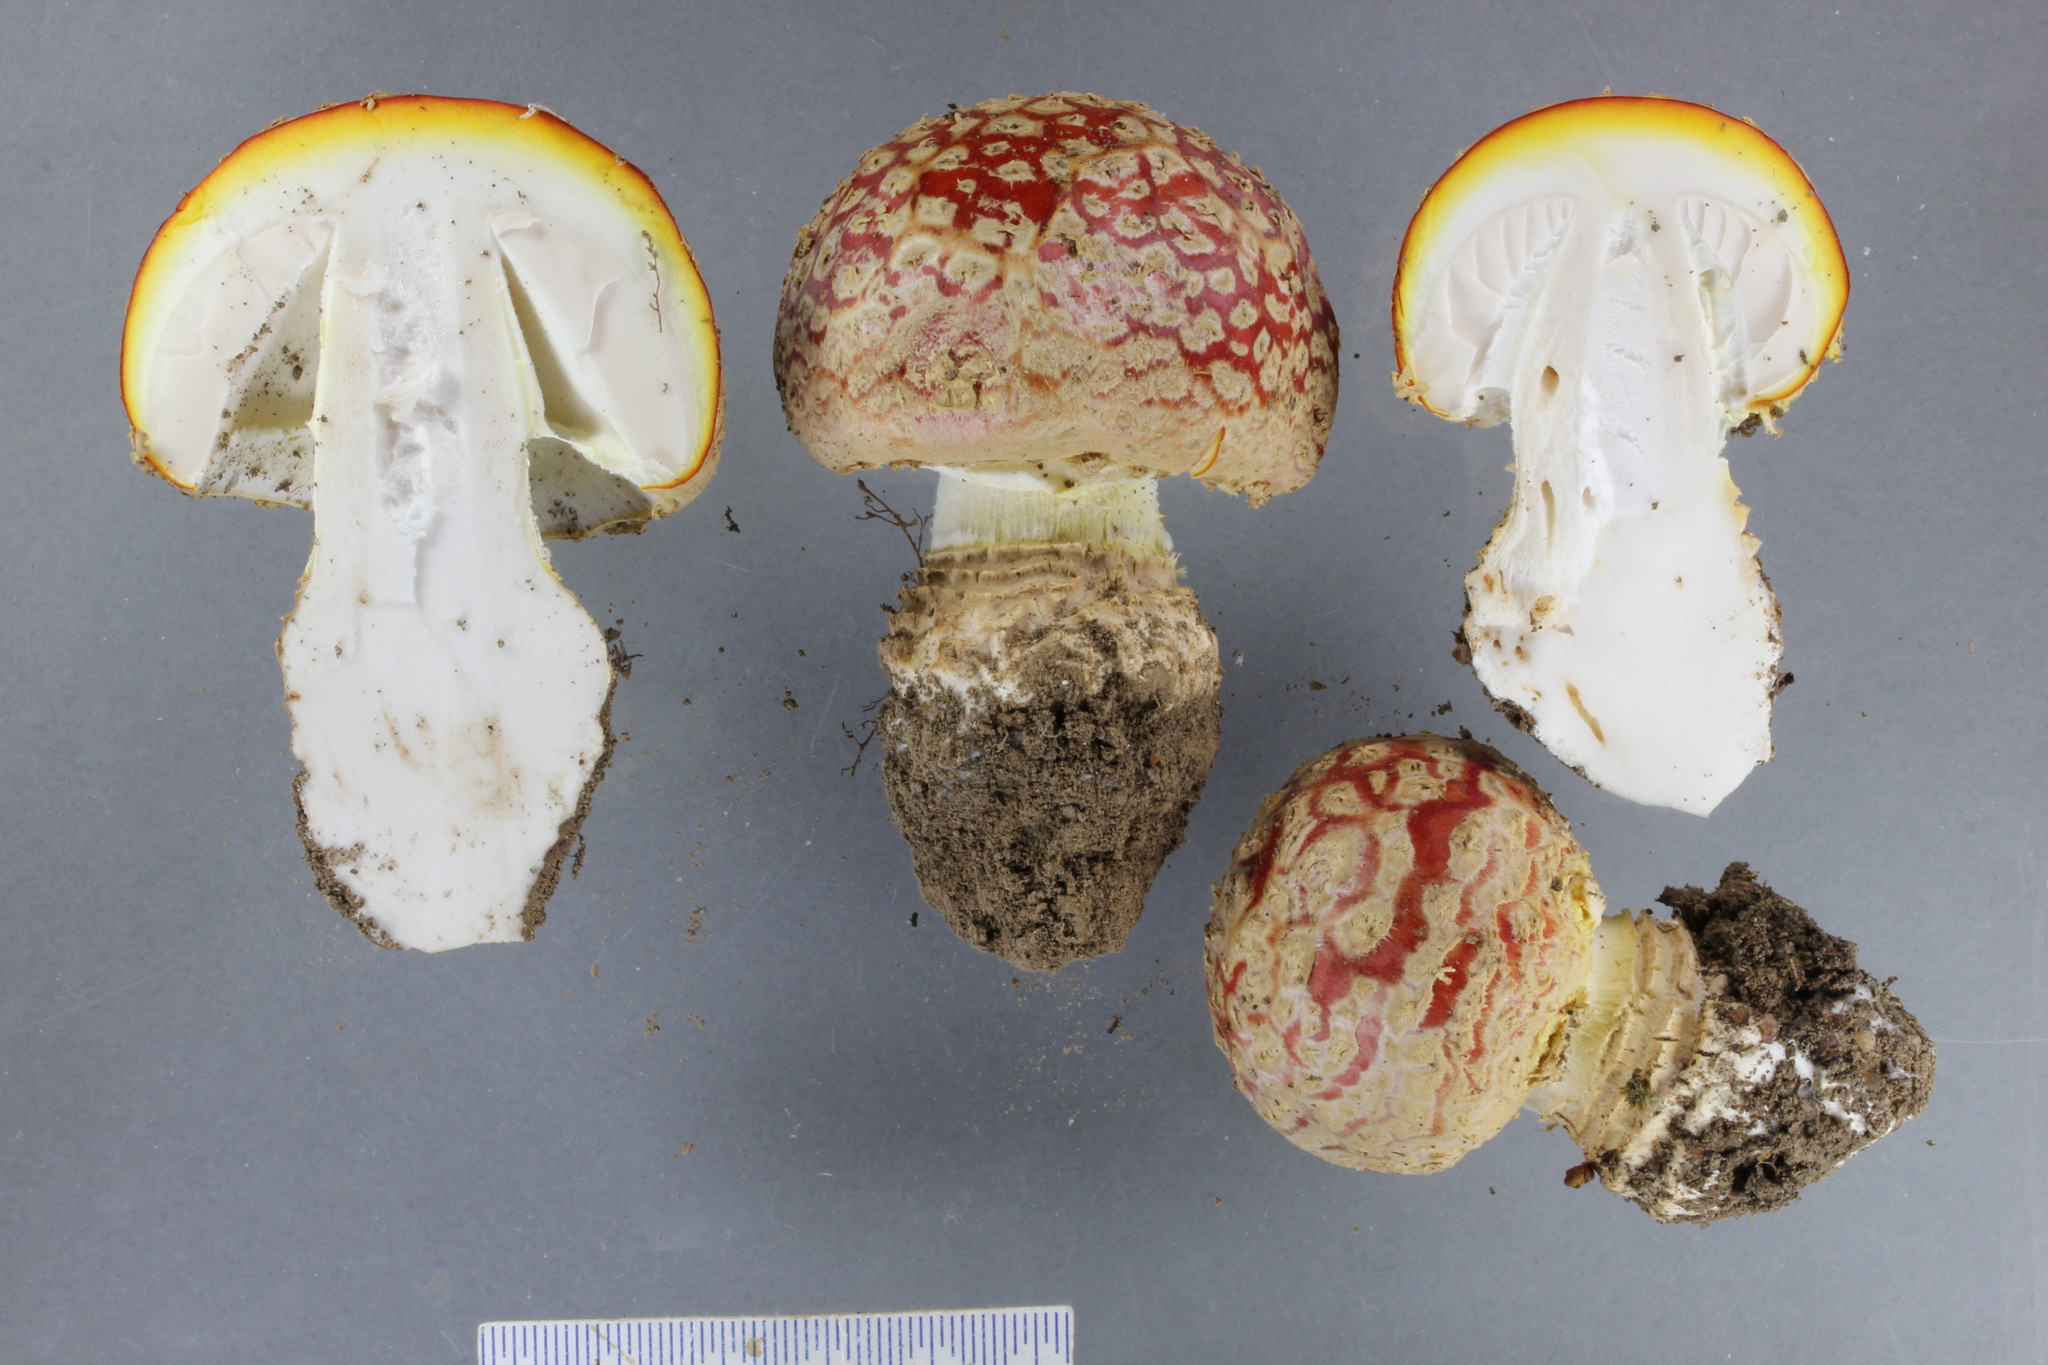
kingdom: Fungi
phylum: Basidiomycota
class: Agaricomycetes
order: Agaricales
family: Amanitaceae
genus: Amanita
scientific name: Amanita muscaria
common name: Fly agaric
